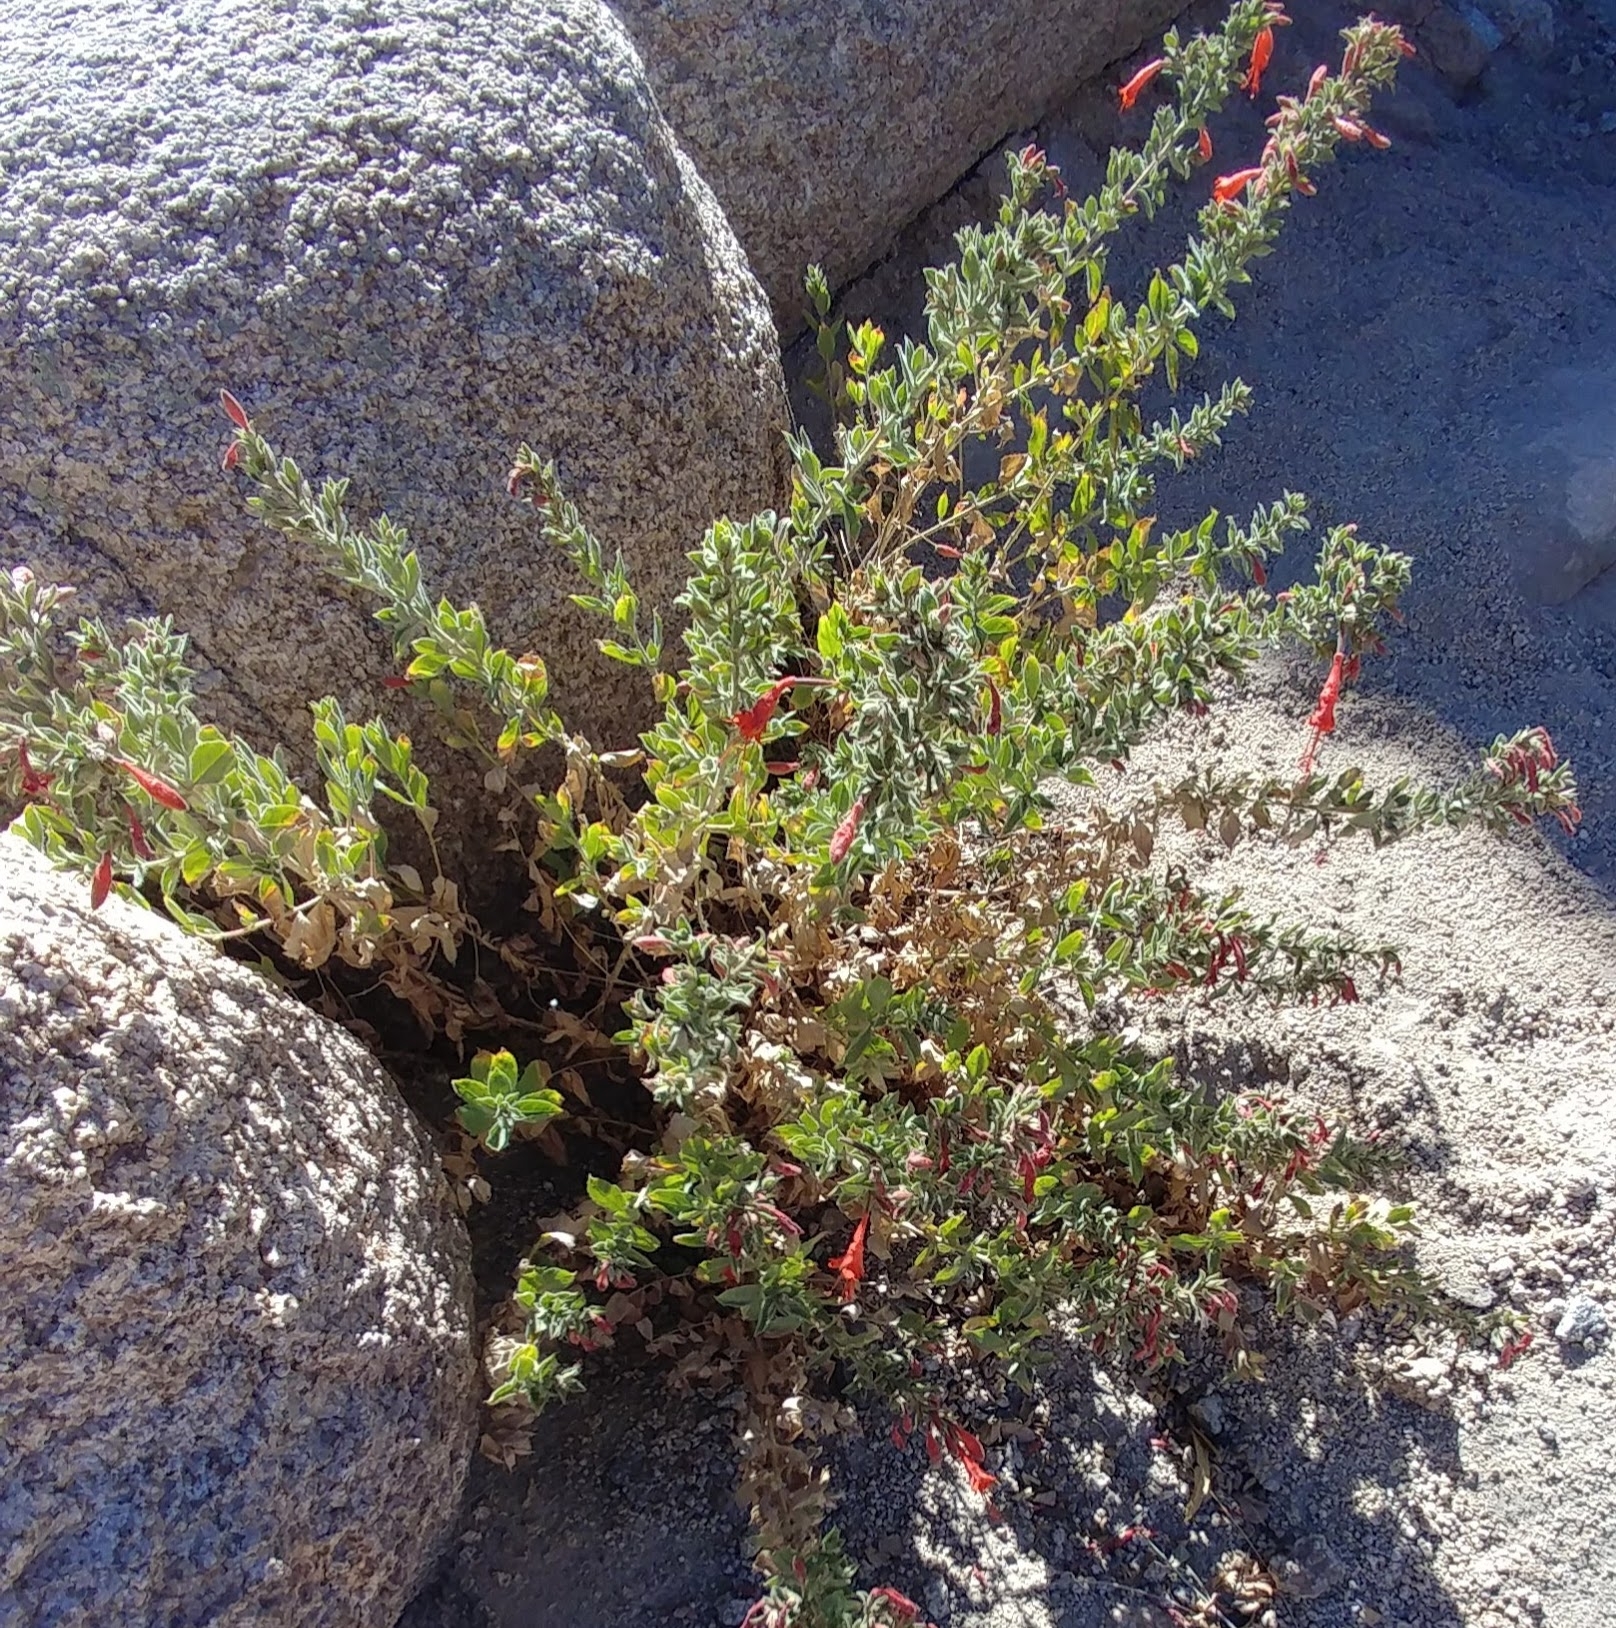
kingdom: Plantae
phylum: Tracheophyta
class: Magnoliopsida
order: Myrtales
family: Onagraceae
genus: Epilobium
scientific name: Epilobium canum
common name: California-fuchsia
